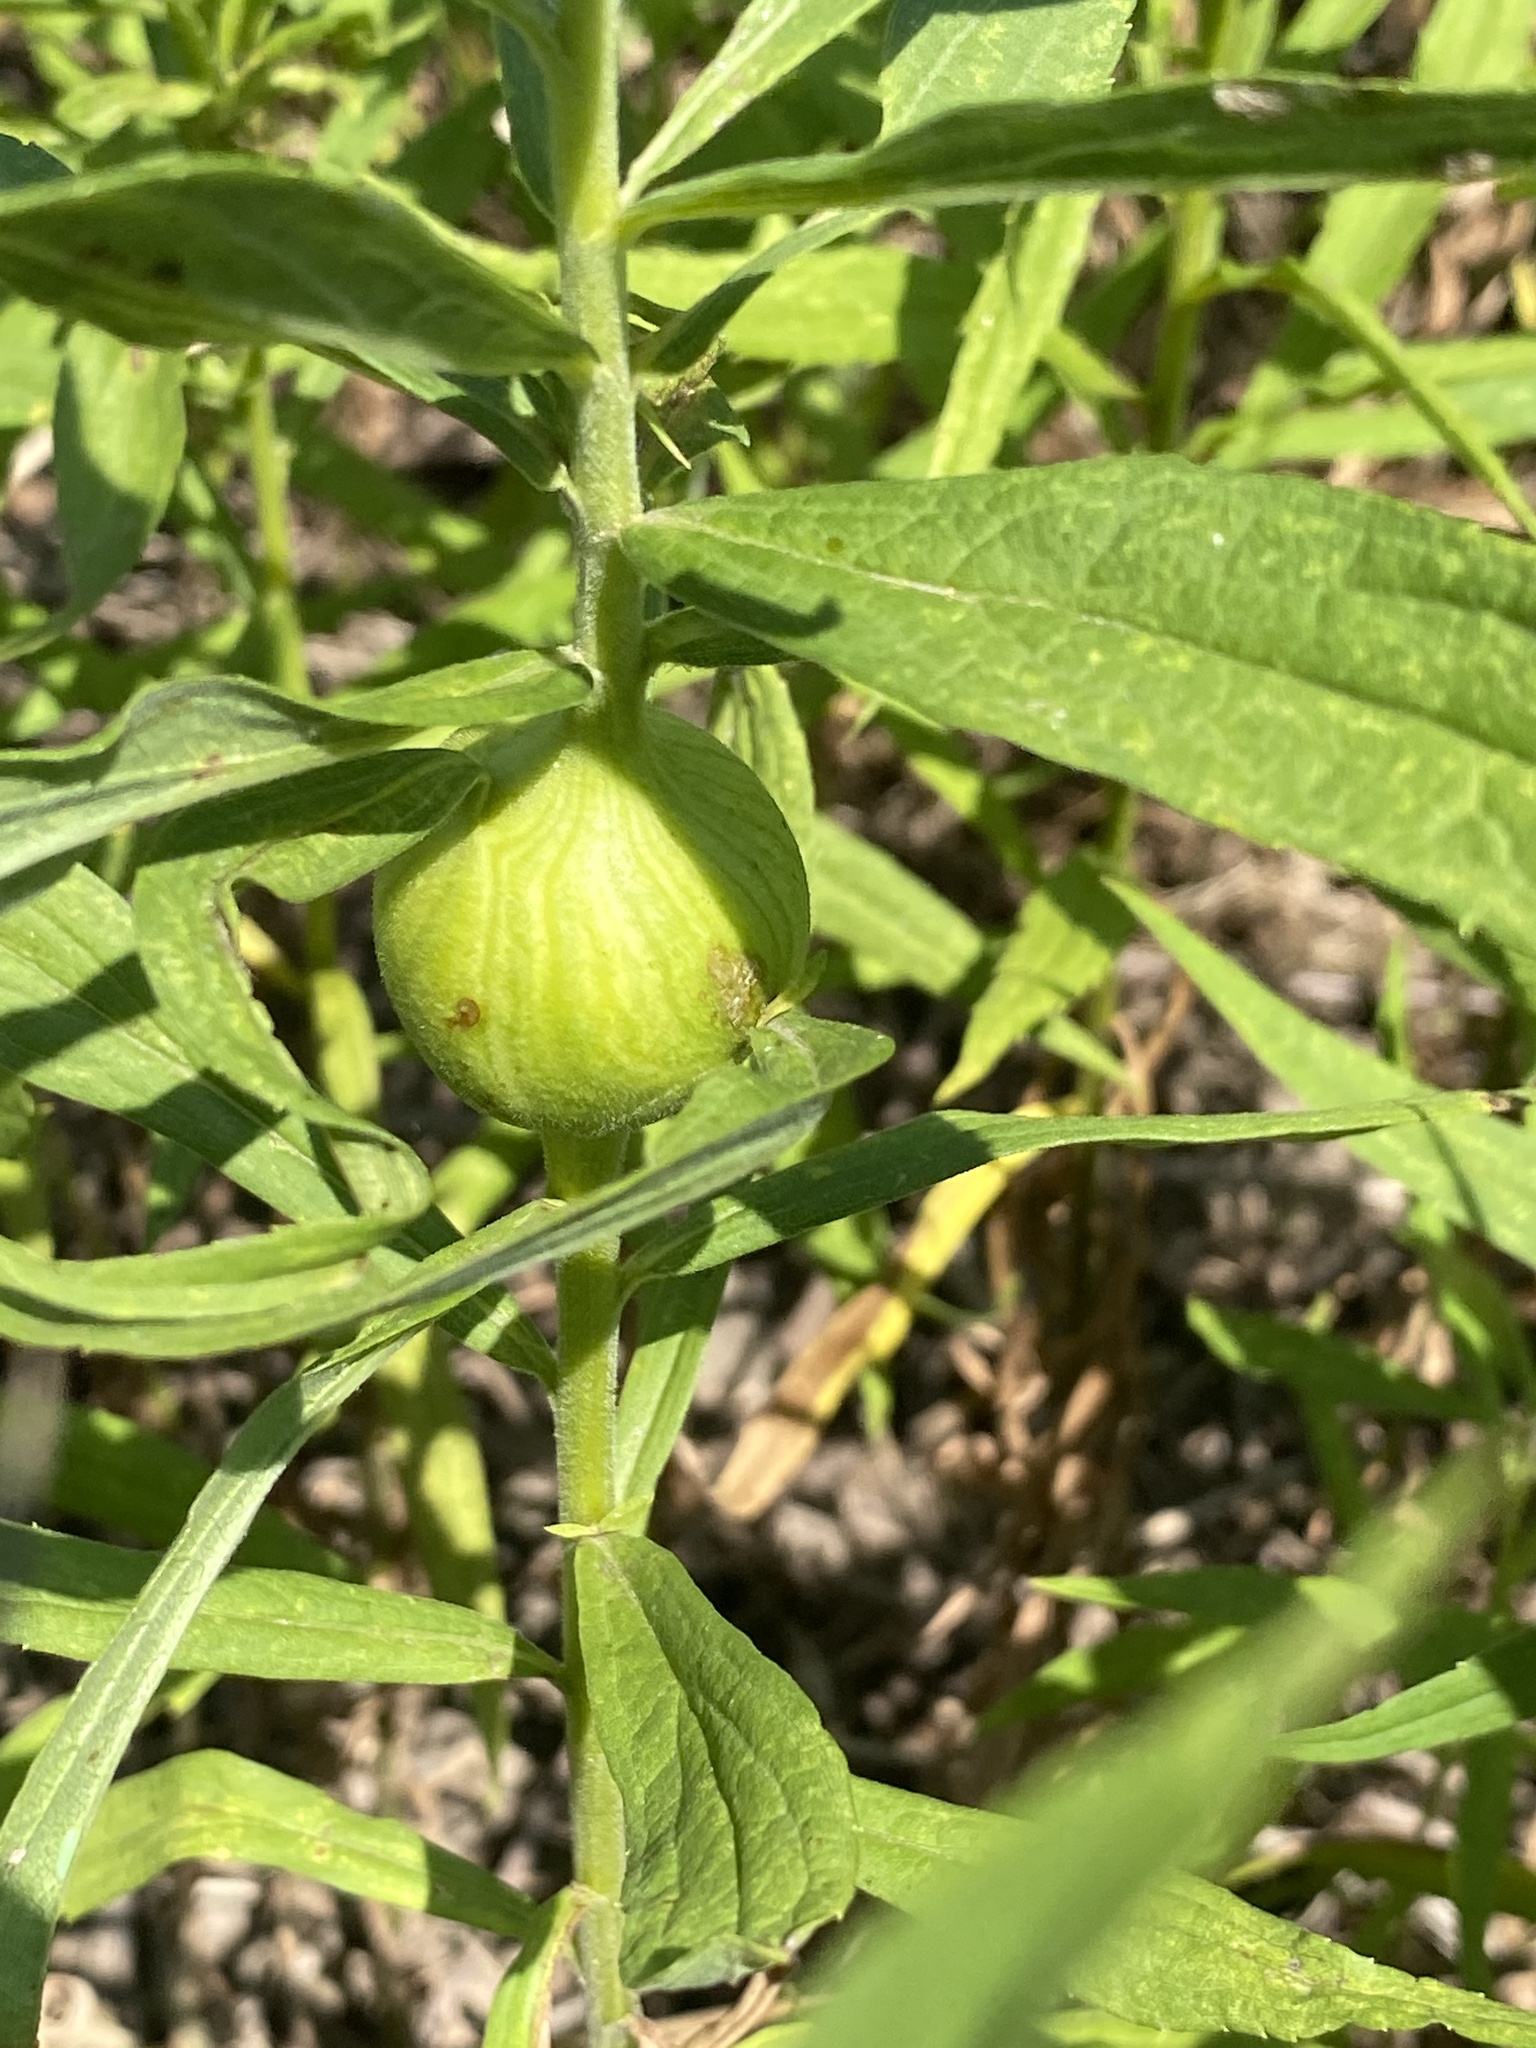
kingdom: Animalia
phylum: Arthropoda
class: Insecta
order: Diptera
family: Tephritidae
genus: Eurosta
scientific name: Eurosta solidaginis
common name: Goldenrod gall fly
